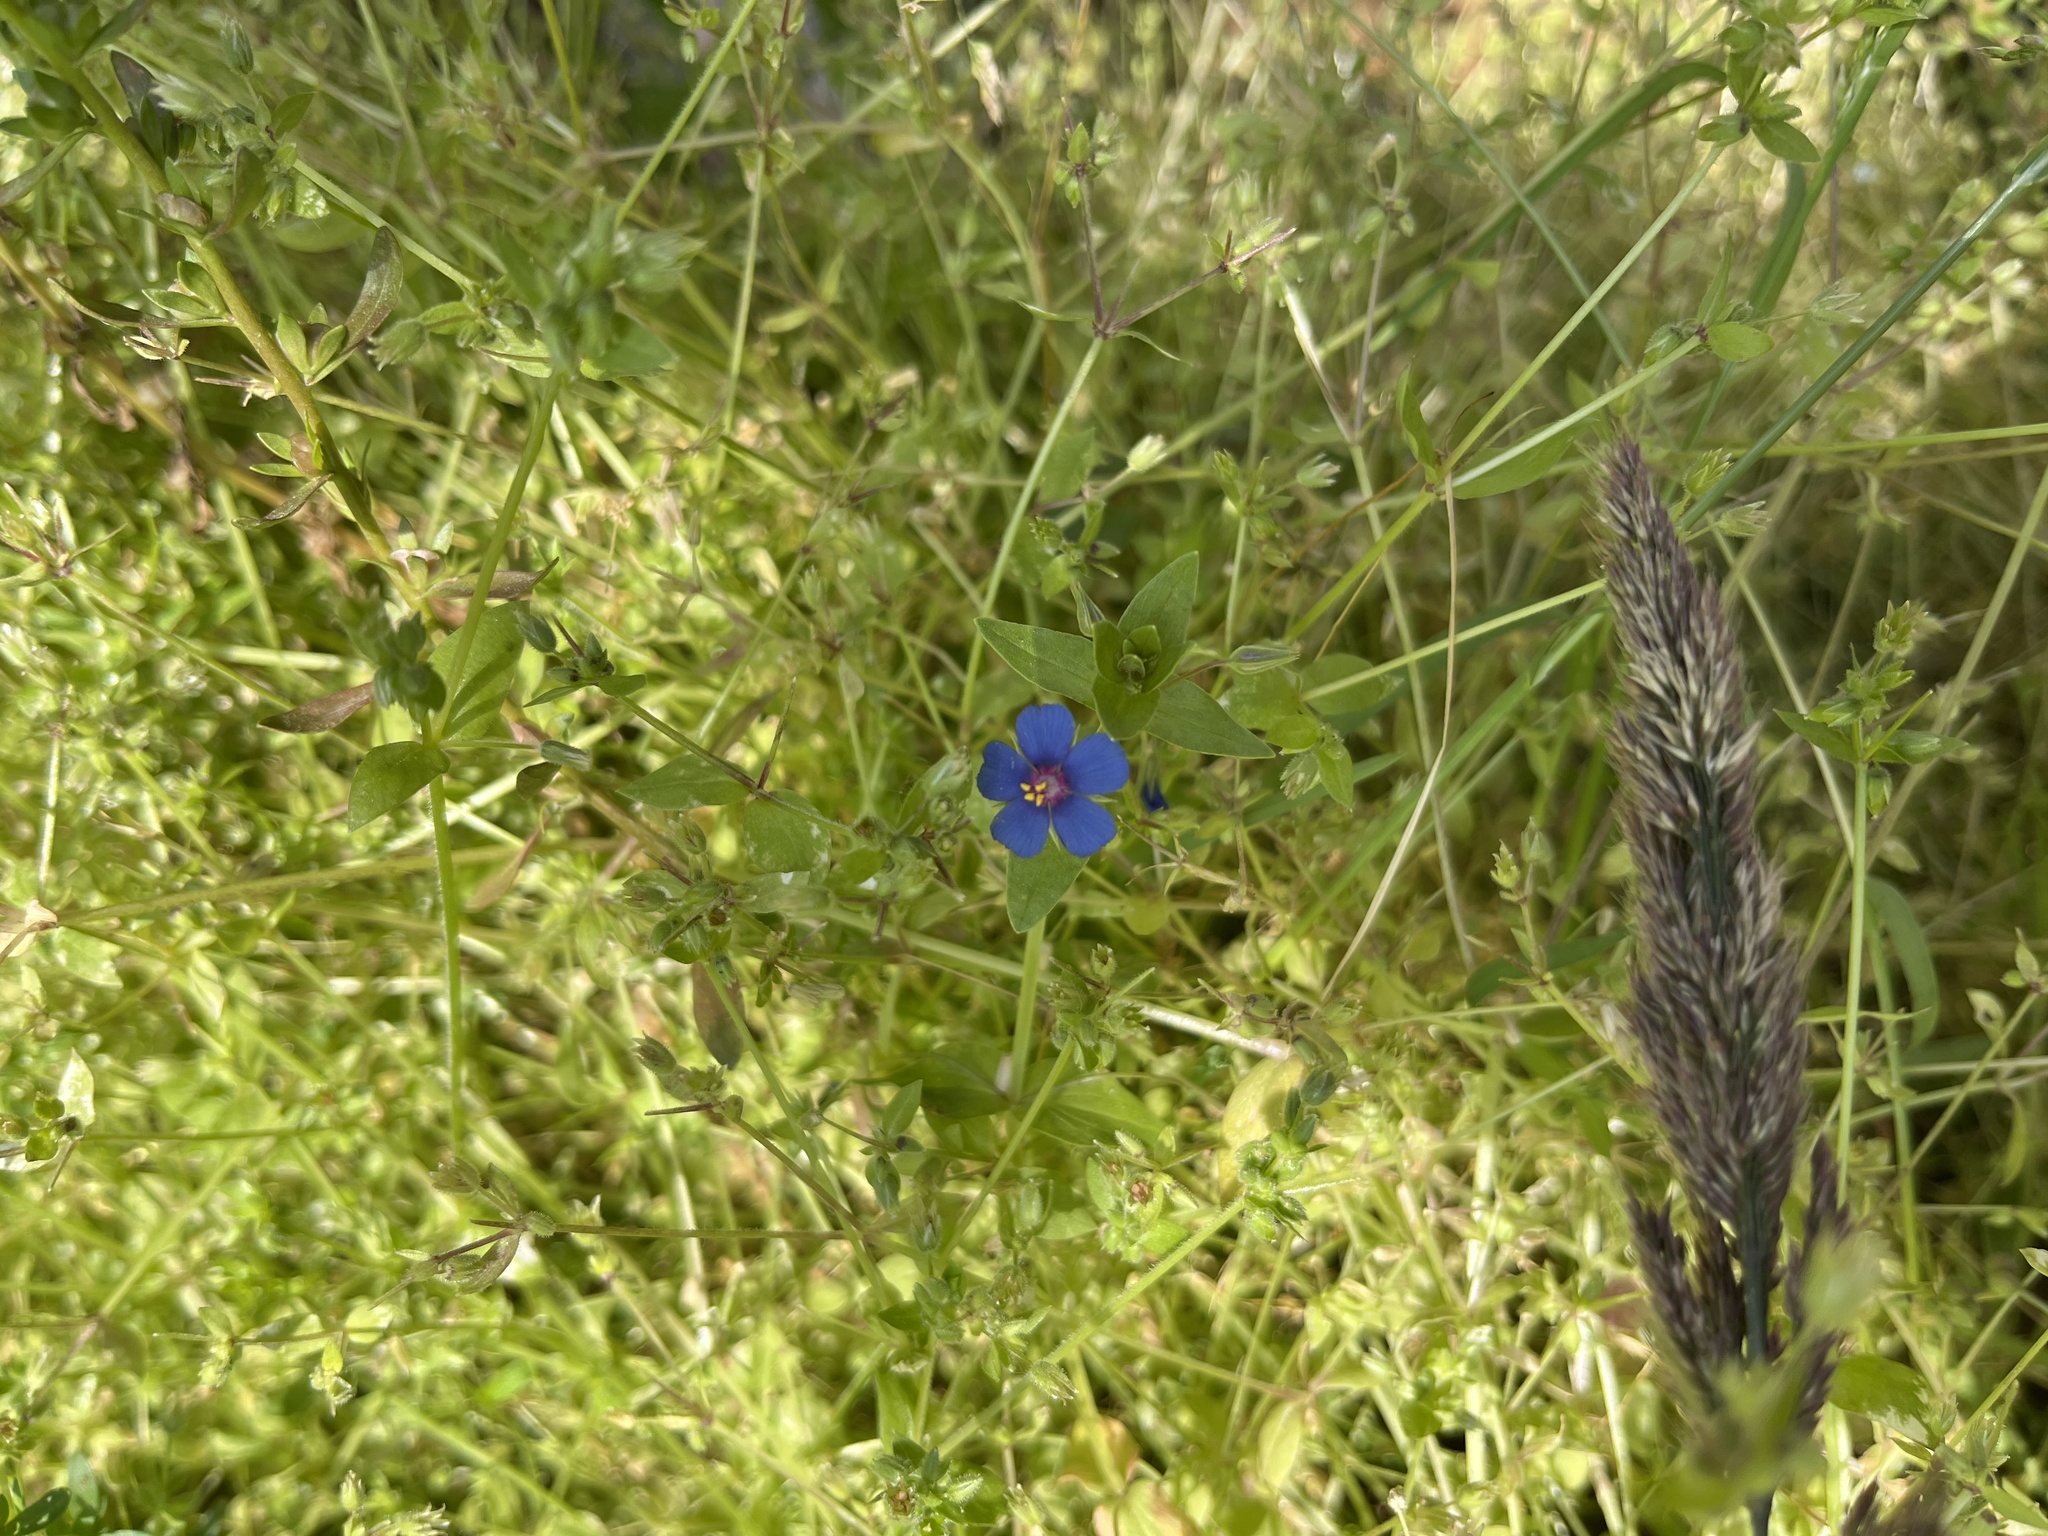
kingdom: Plantae
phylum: Tracheophyta
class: Magnoliopsida
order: Ericales
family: Primulaceae
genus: Lysimachia
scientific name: Lysimachia arvensis
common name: Scarlet pimpernel
